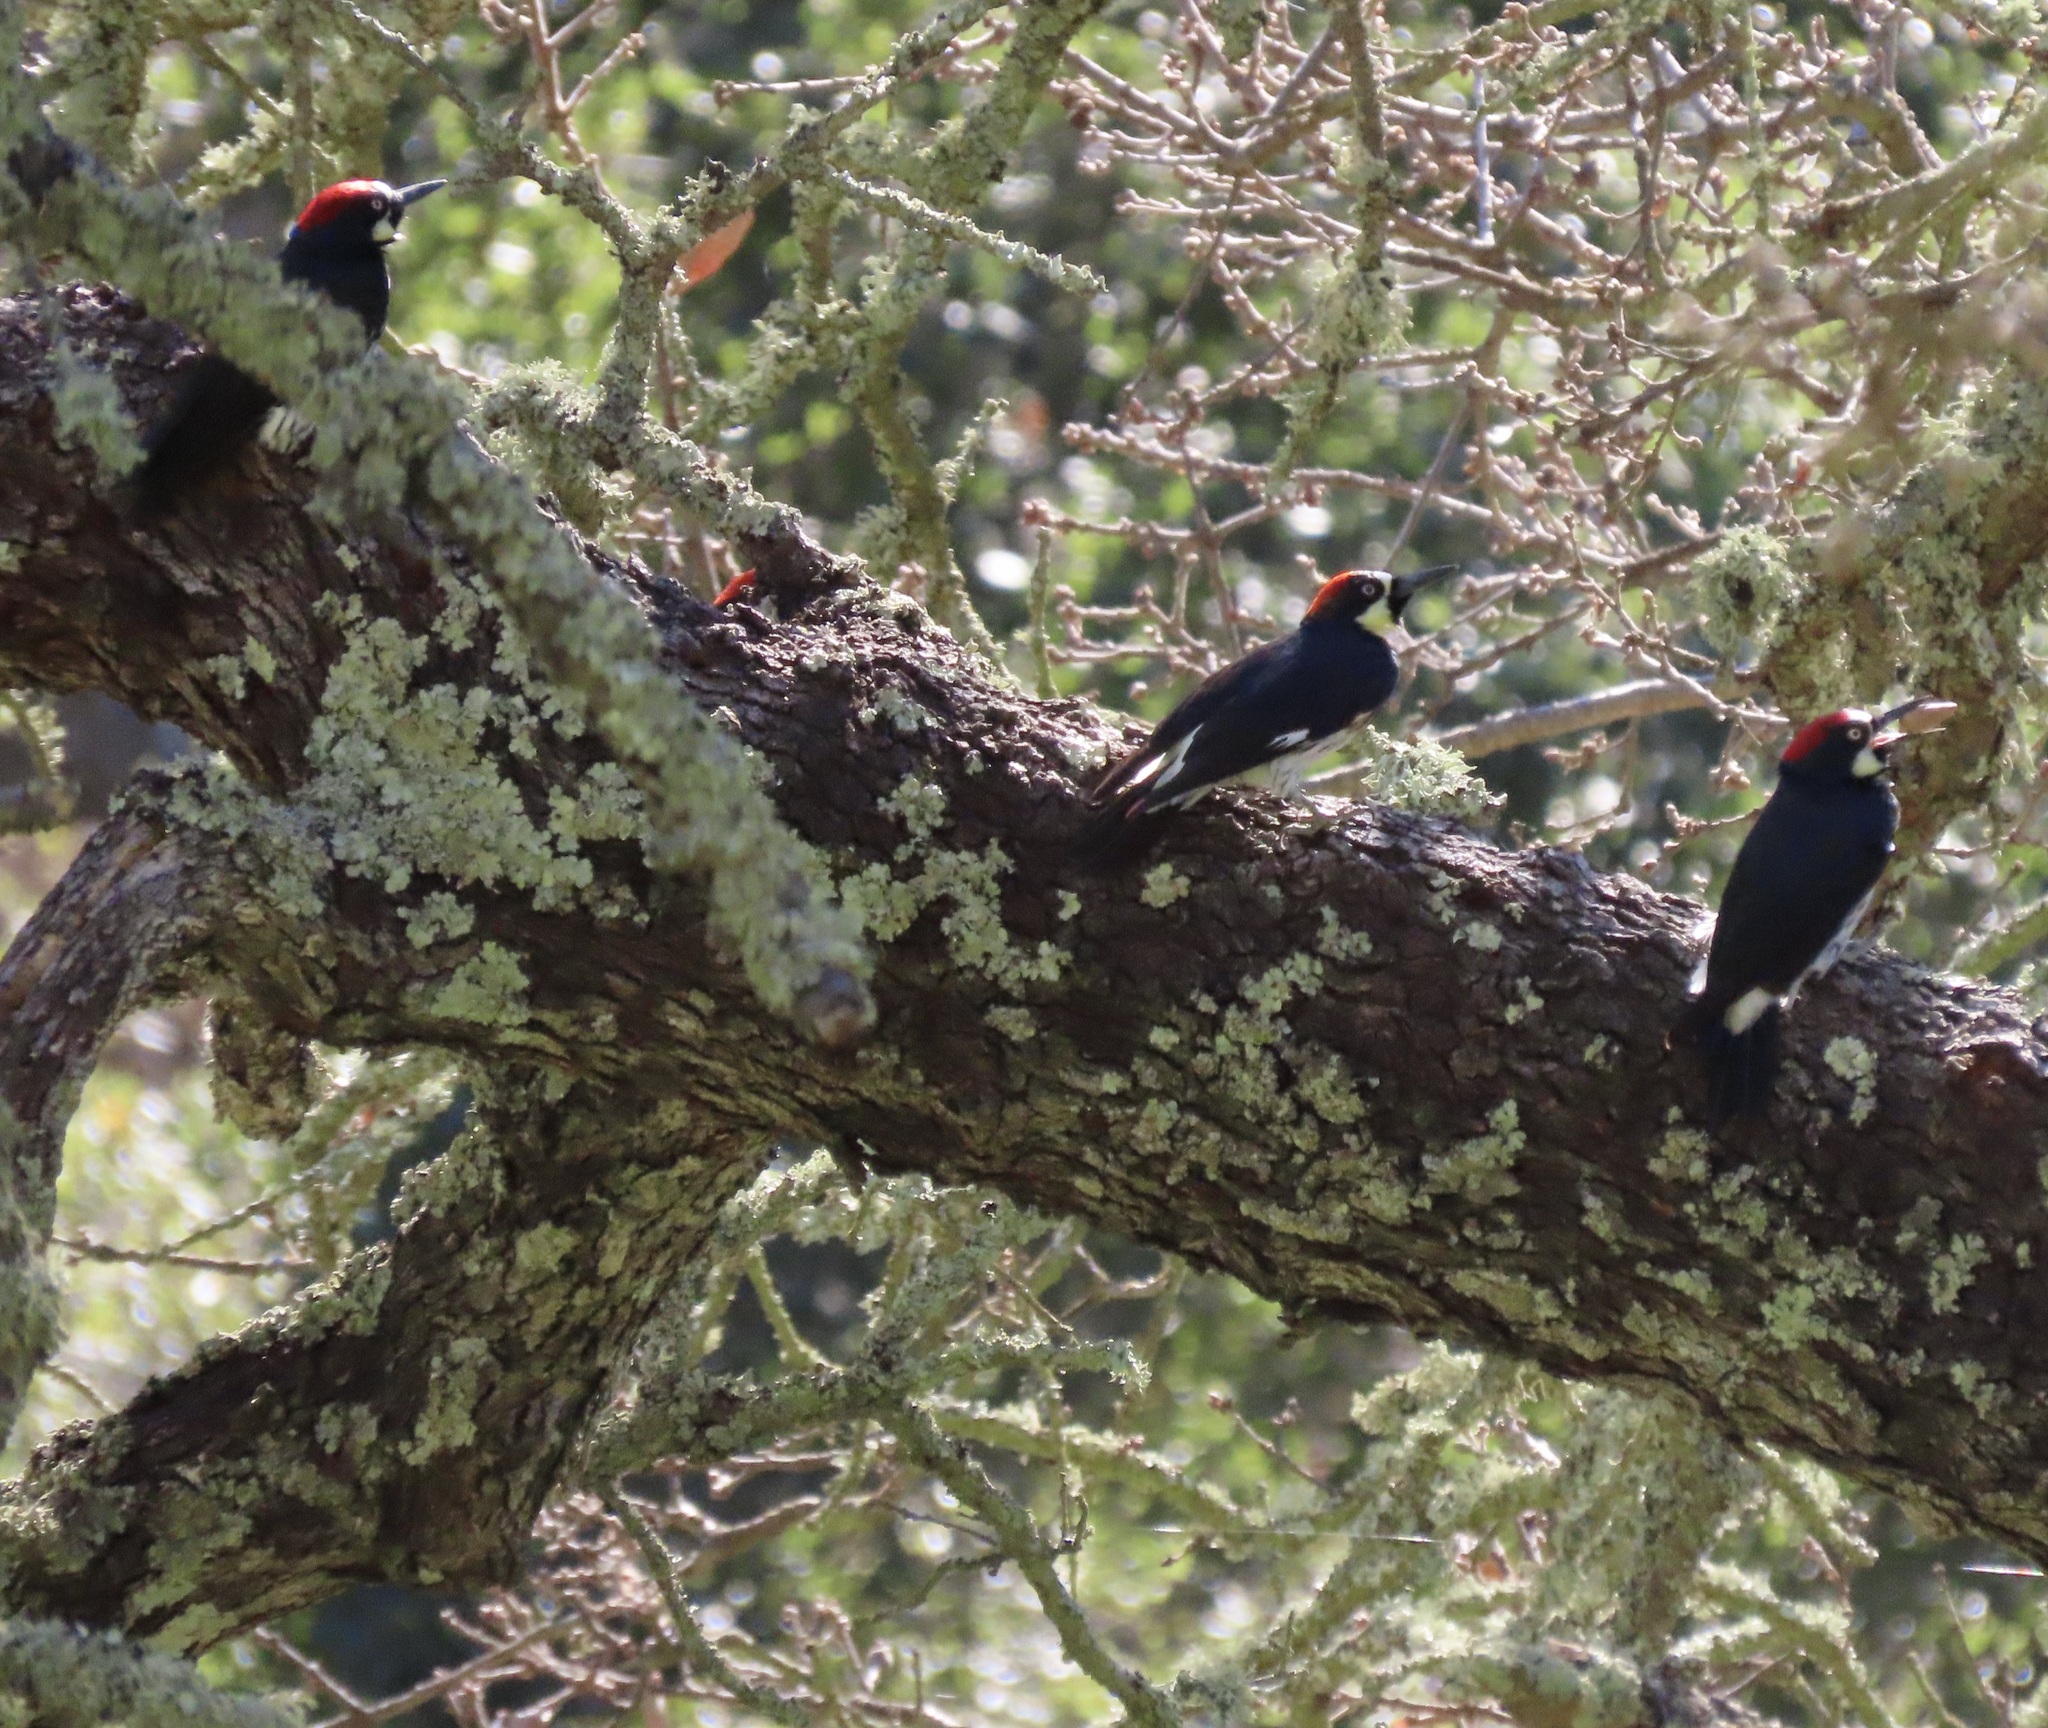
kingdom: Animalia
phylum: Chordata
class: Aves
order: Piciformes
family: Picidae
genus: Melanerpes
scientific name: Melanerpes formicivorus
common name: Acorn woodpecker
